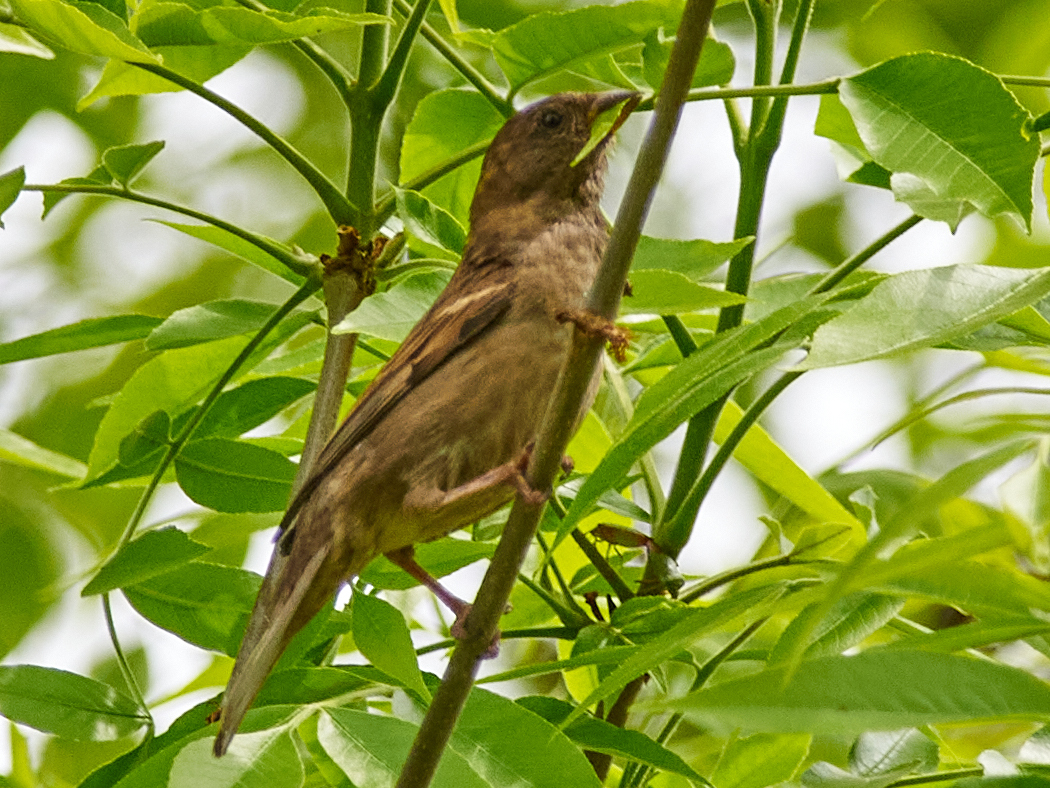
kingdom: Animalia
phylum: Chordata
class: Aves
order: Passeriformes
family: Passeridae
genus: Passer
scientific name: Passer domesticus
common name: House sparrow
